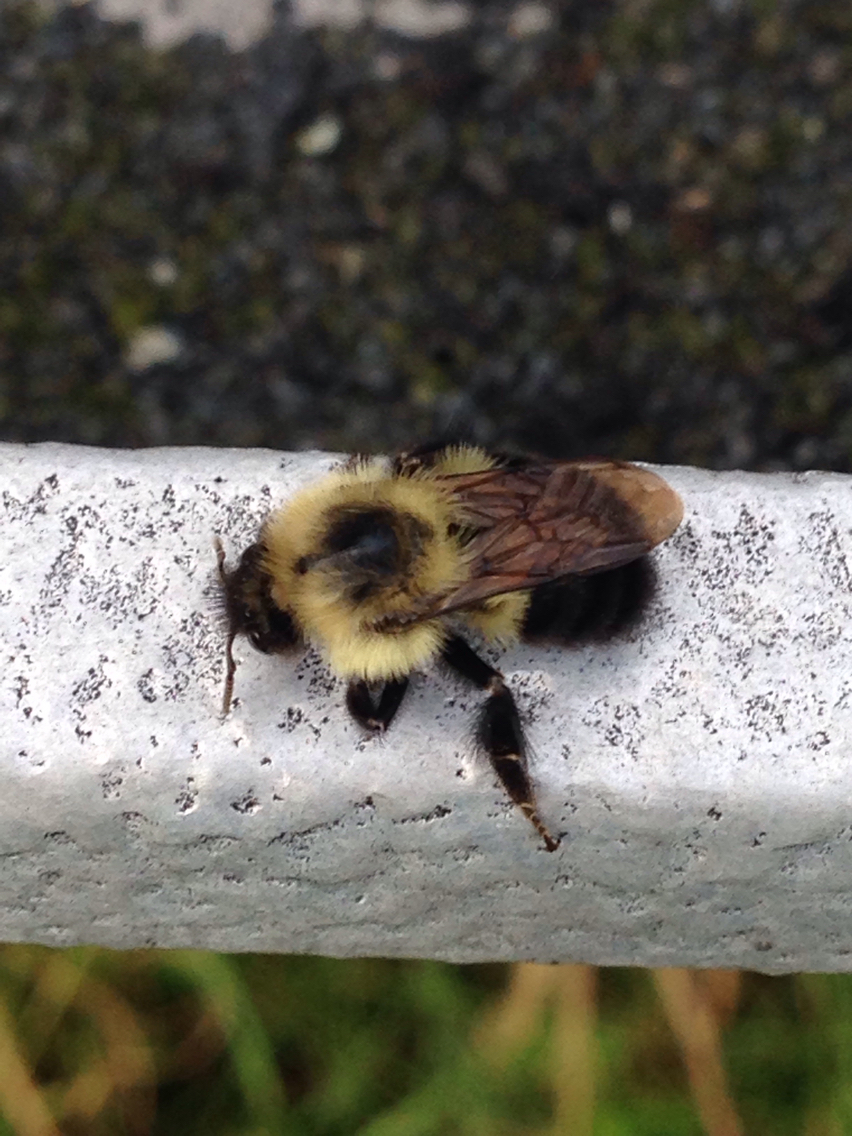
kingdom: Animalia
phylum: Arthropoda
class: Insecta
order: Hymenoptera
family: Apidae
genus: Bombus
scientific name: Bombus bimaculatus
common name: Two-spotted bumble bee
